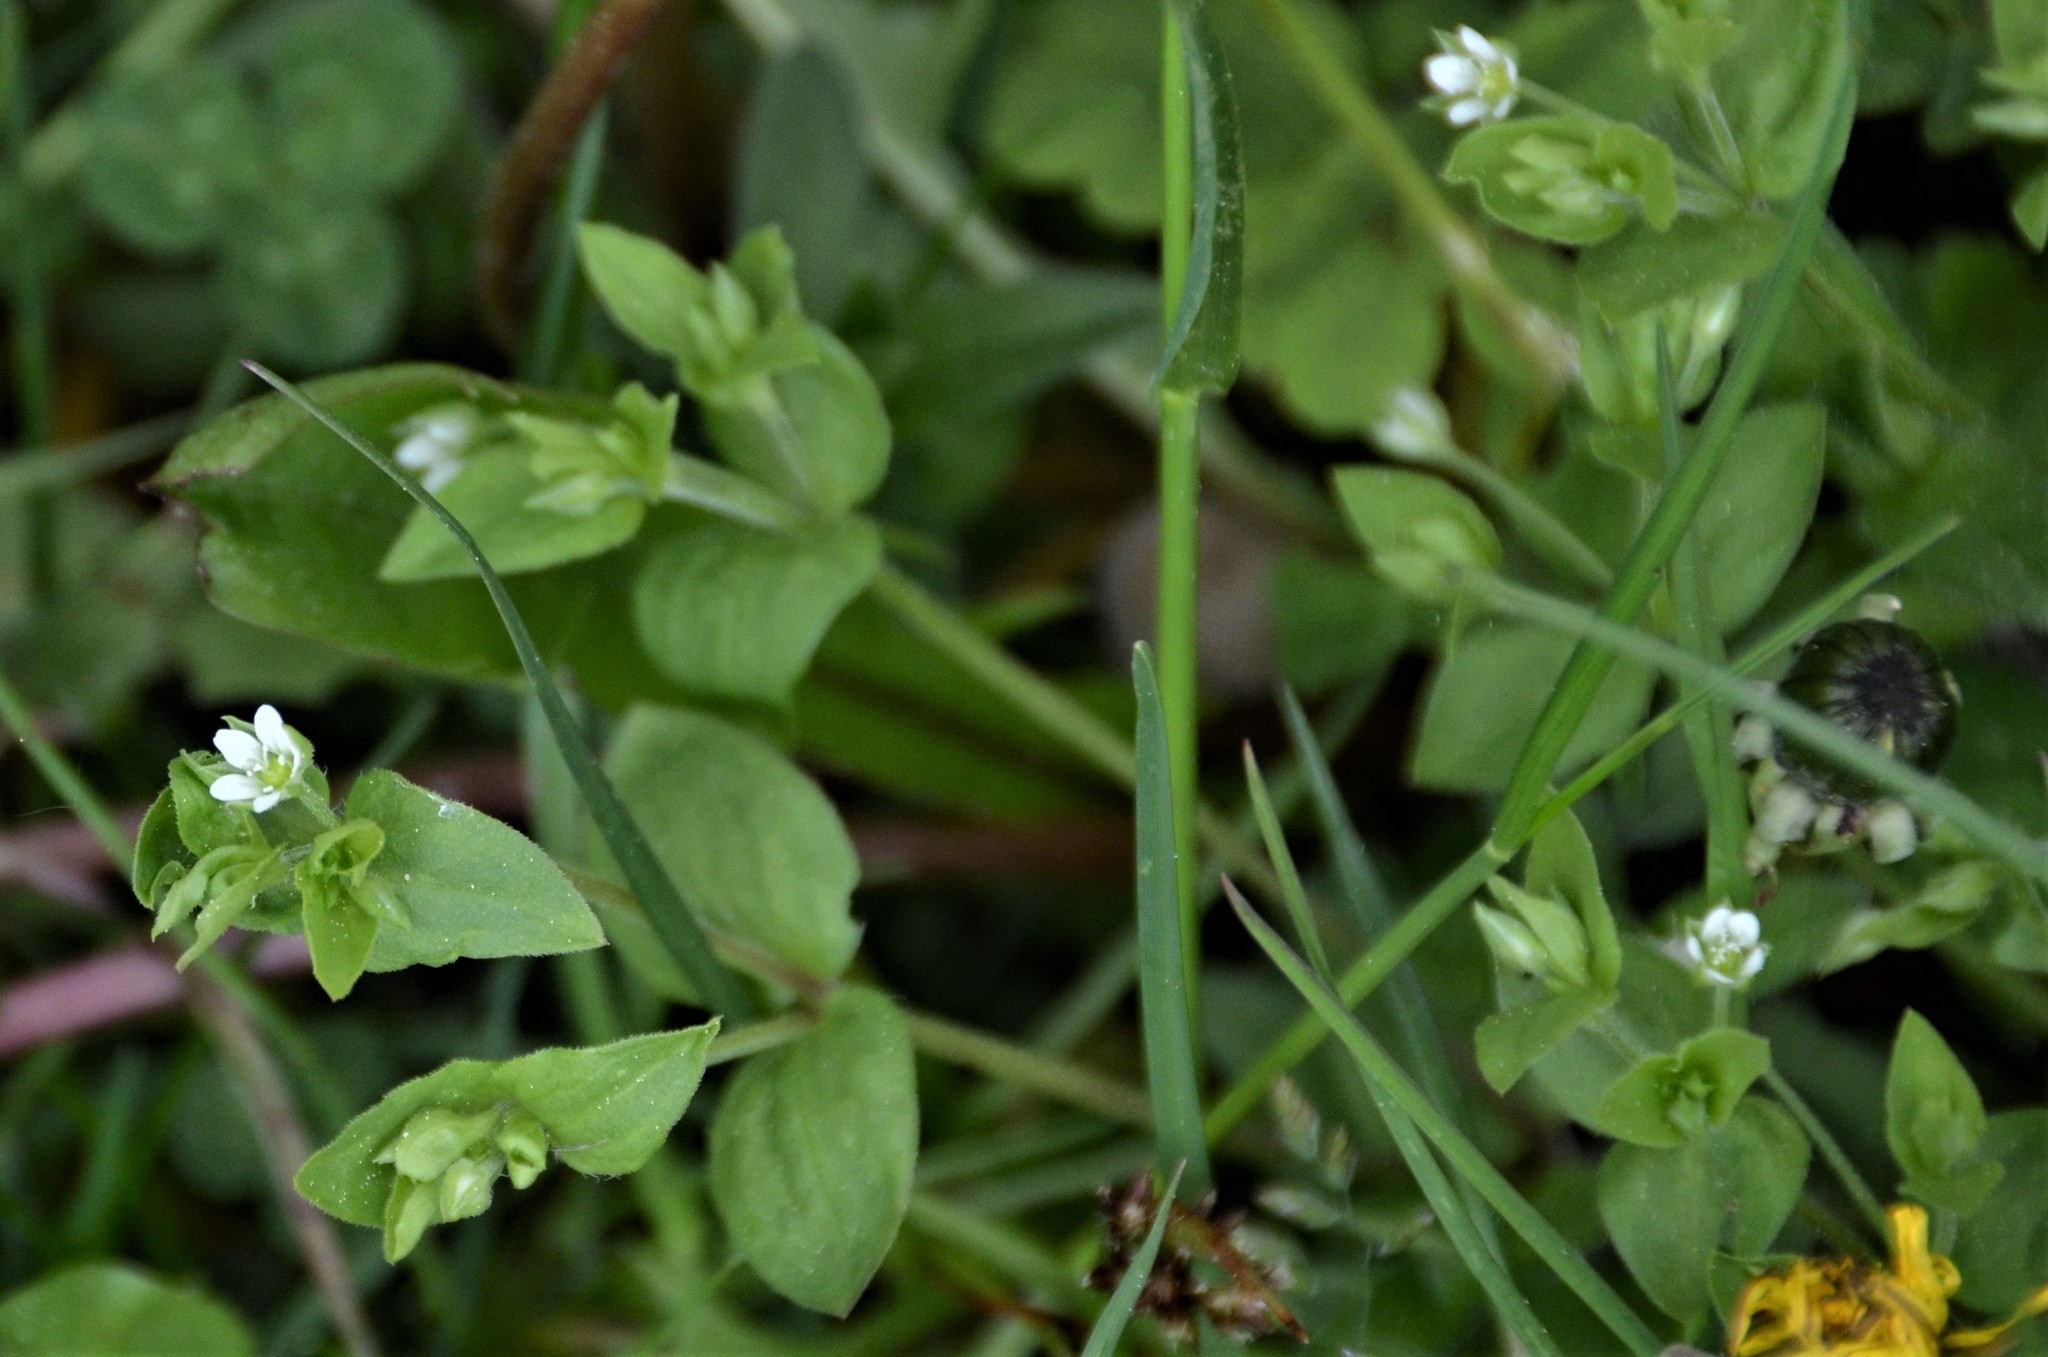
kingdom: Plantae
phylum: Tracheophyta
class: Magnoliopsida
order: Caryophyllales
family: Caryophyllaceae
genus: Moehringia
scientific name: Moehringia trinervia
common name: Three-nerved sandwort
